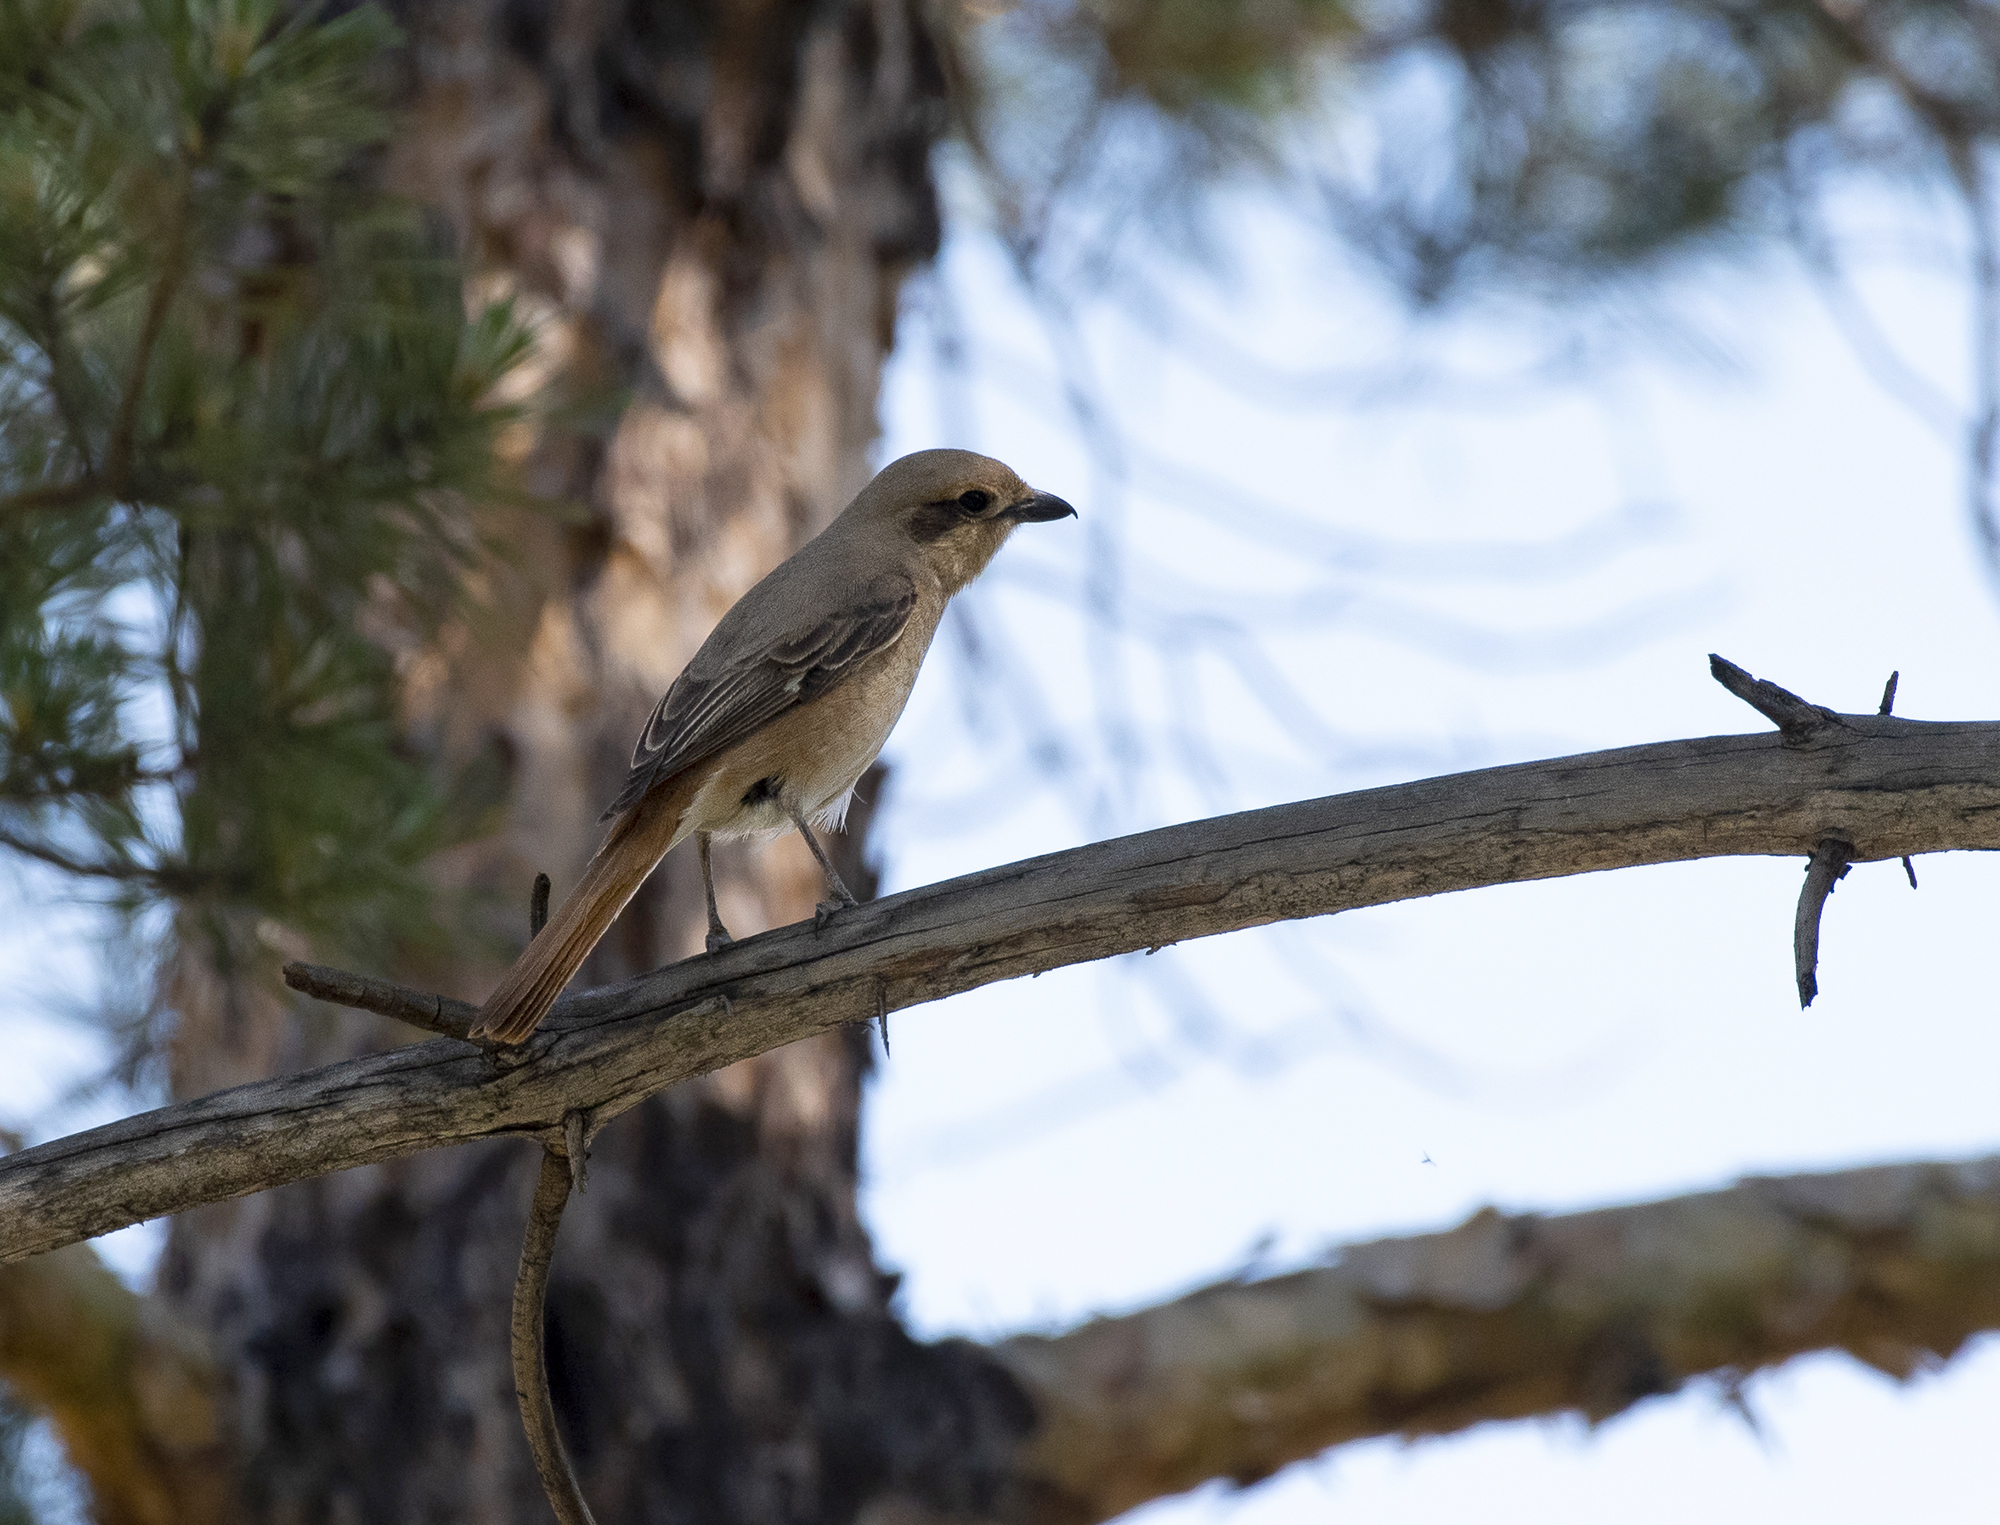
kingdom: Animalia
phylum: Chordata
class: Aves
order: Passeriformes
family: Laniidae
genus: Lanius
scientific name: Lanius isabellinus
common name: Isabelline shrike
